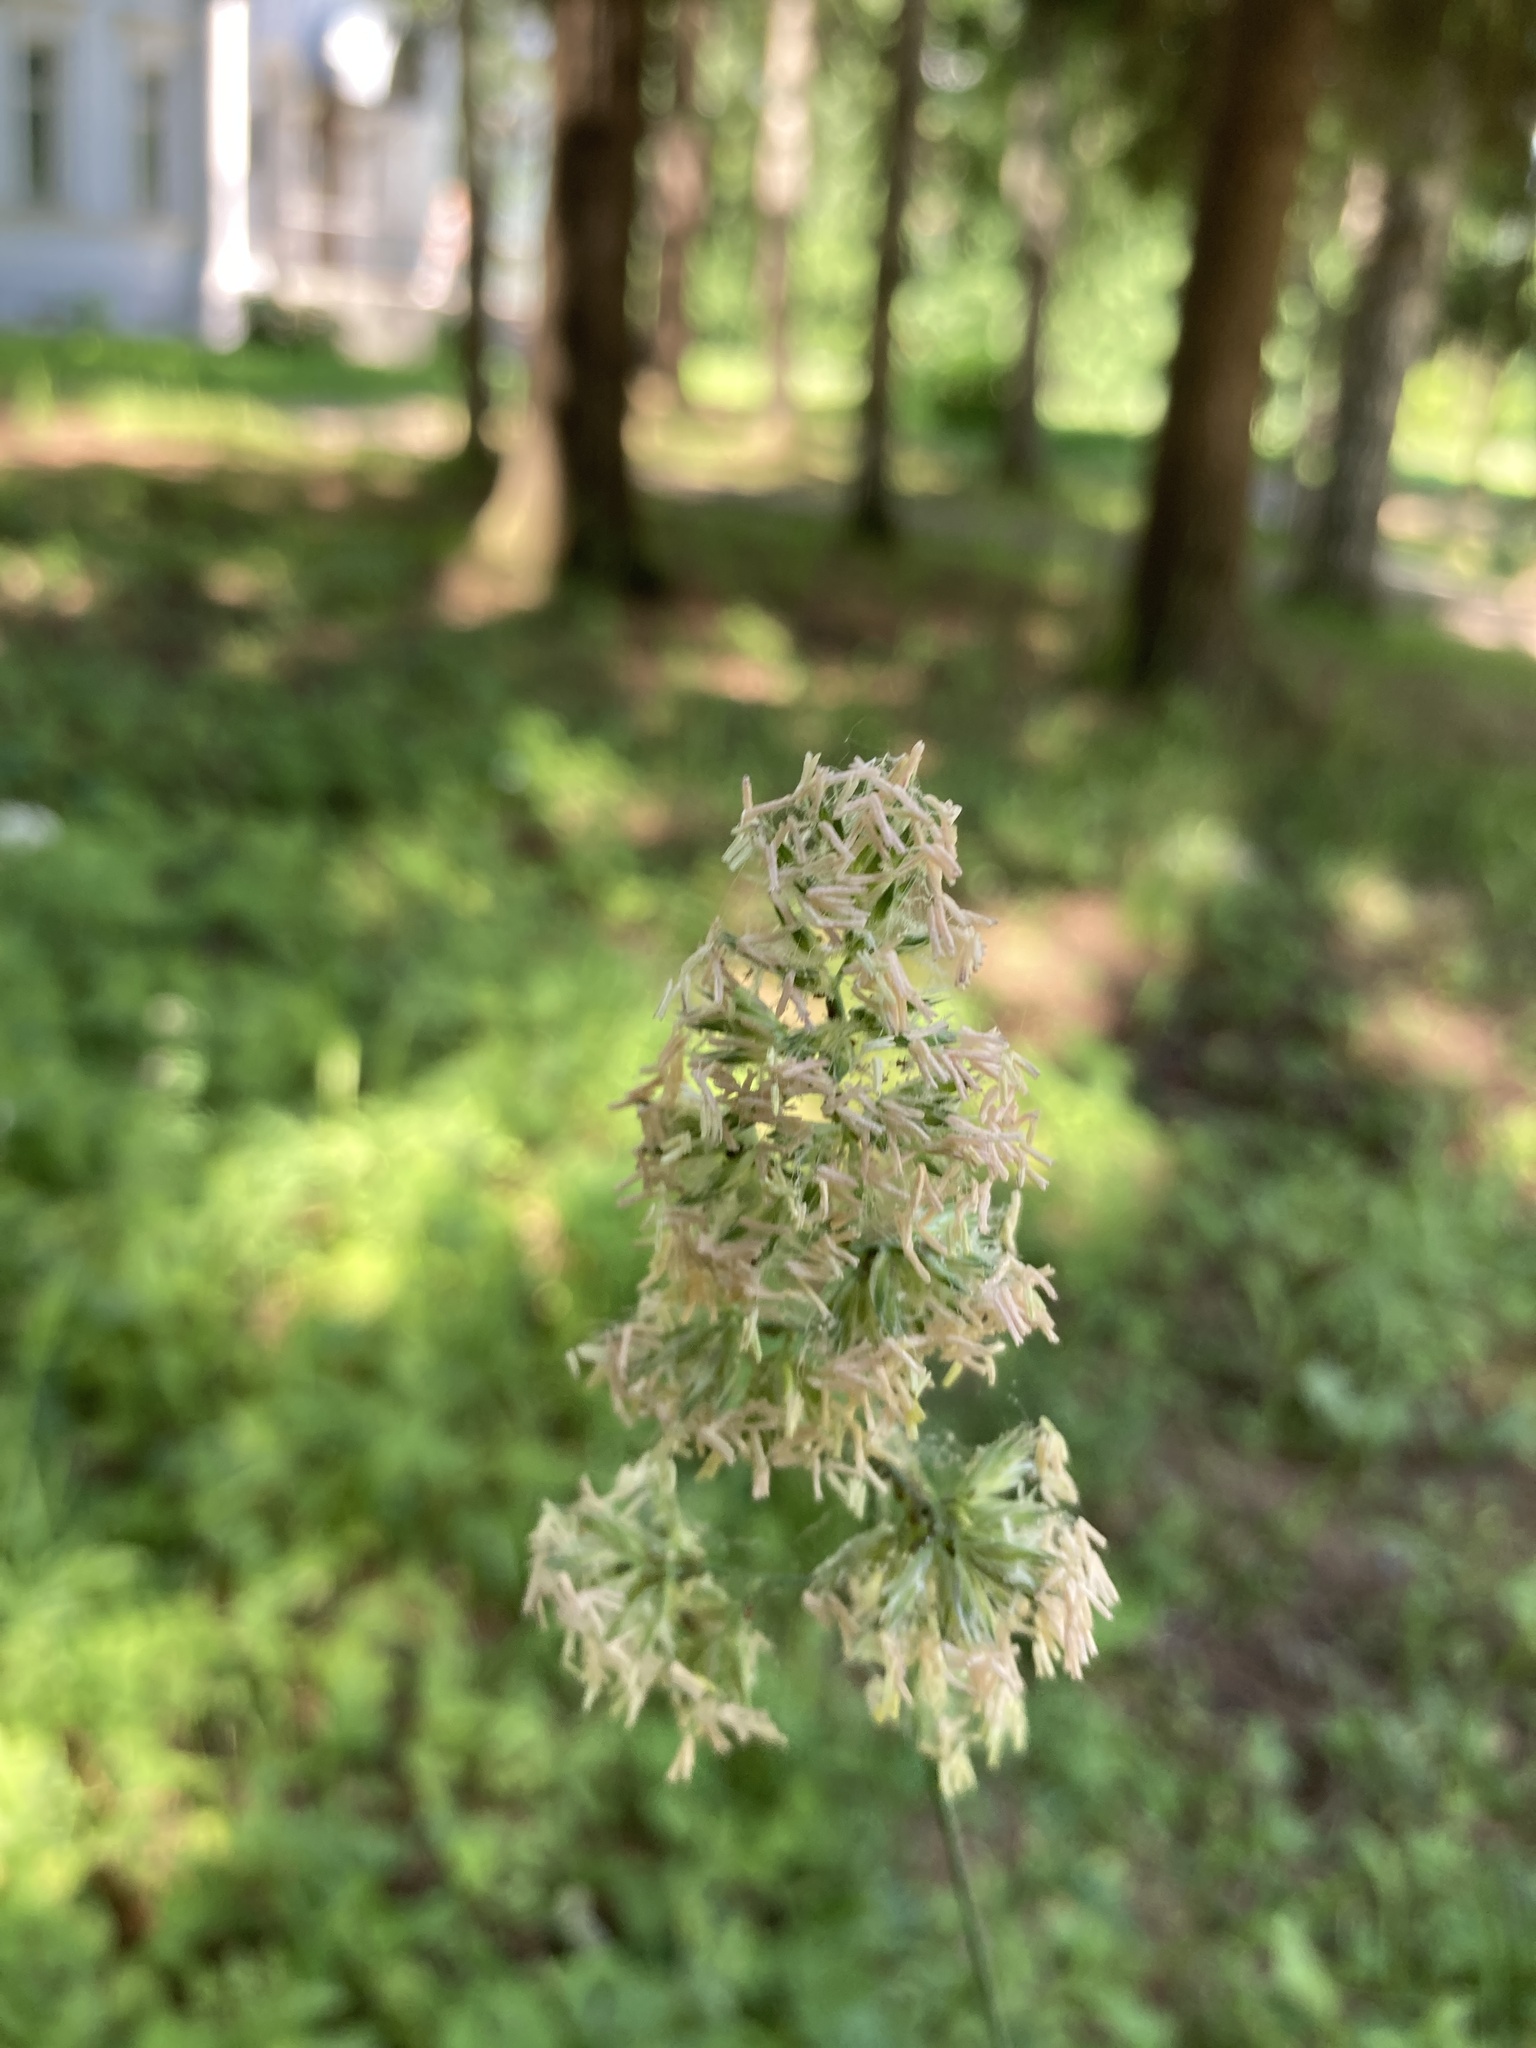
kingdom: Plantae
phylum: Tracheophyta
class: Liliopsida
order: Poales
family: Poaceae
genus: Dactylis
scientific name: Dactylis glomerata
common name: Orchardgrass
